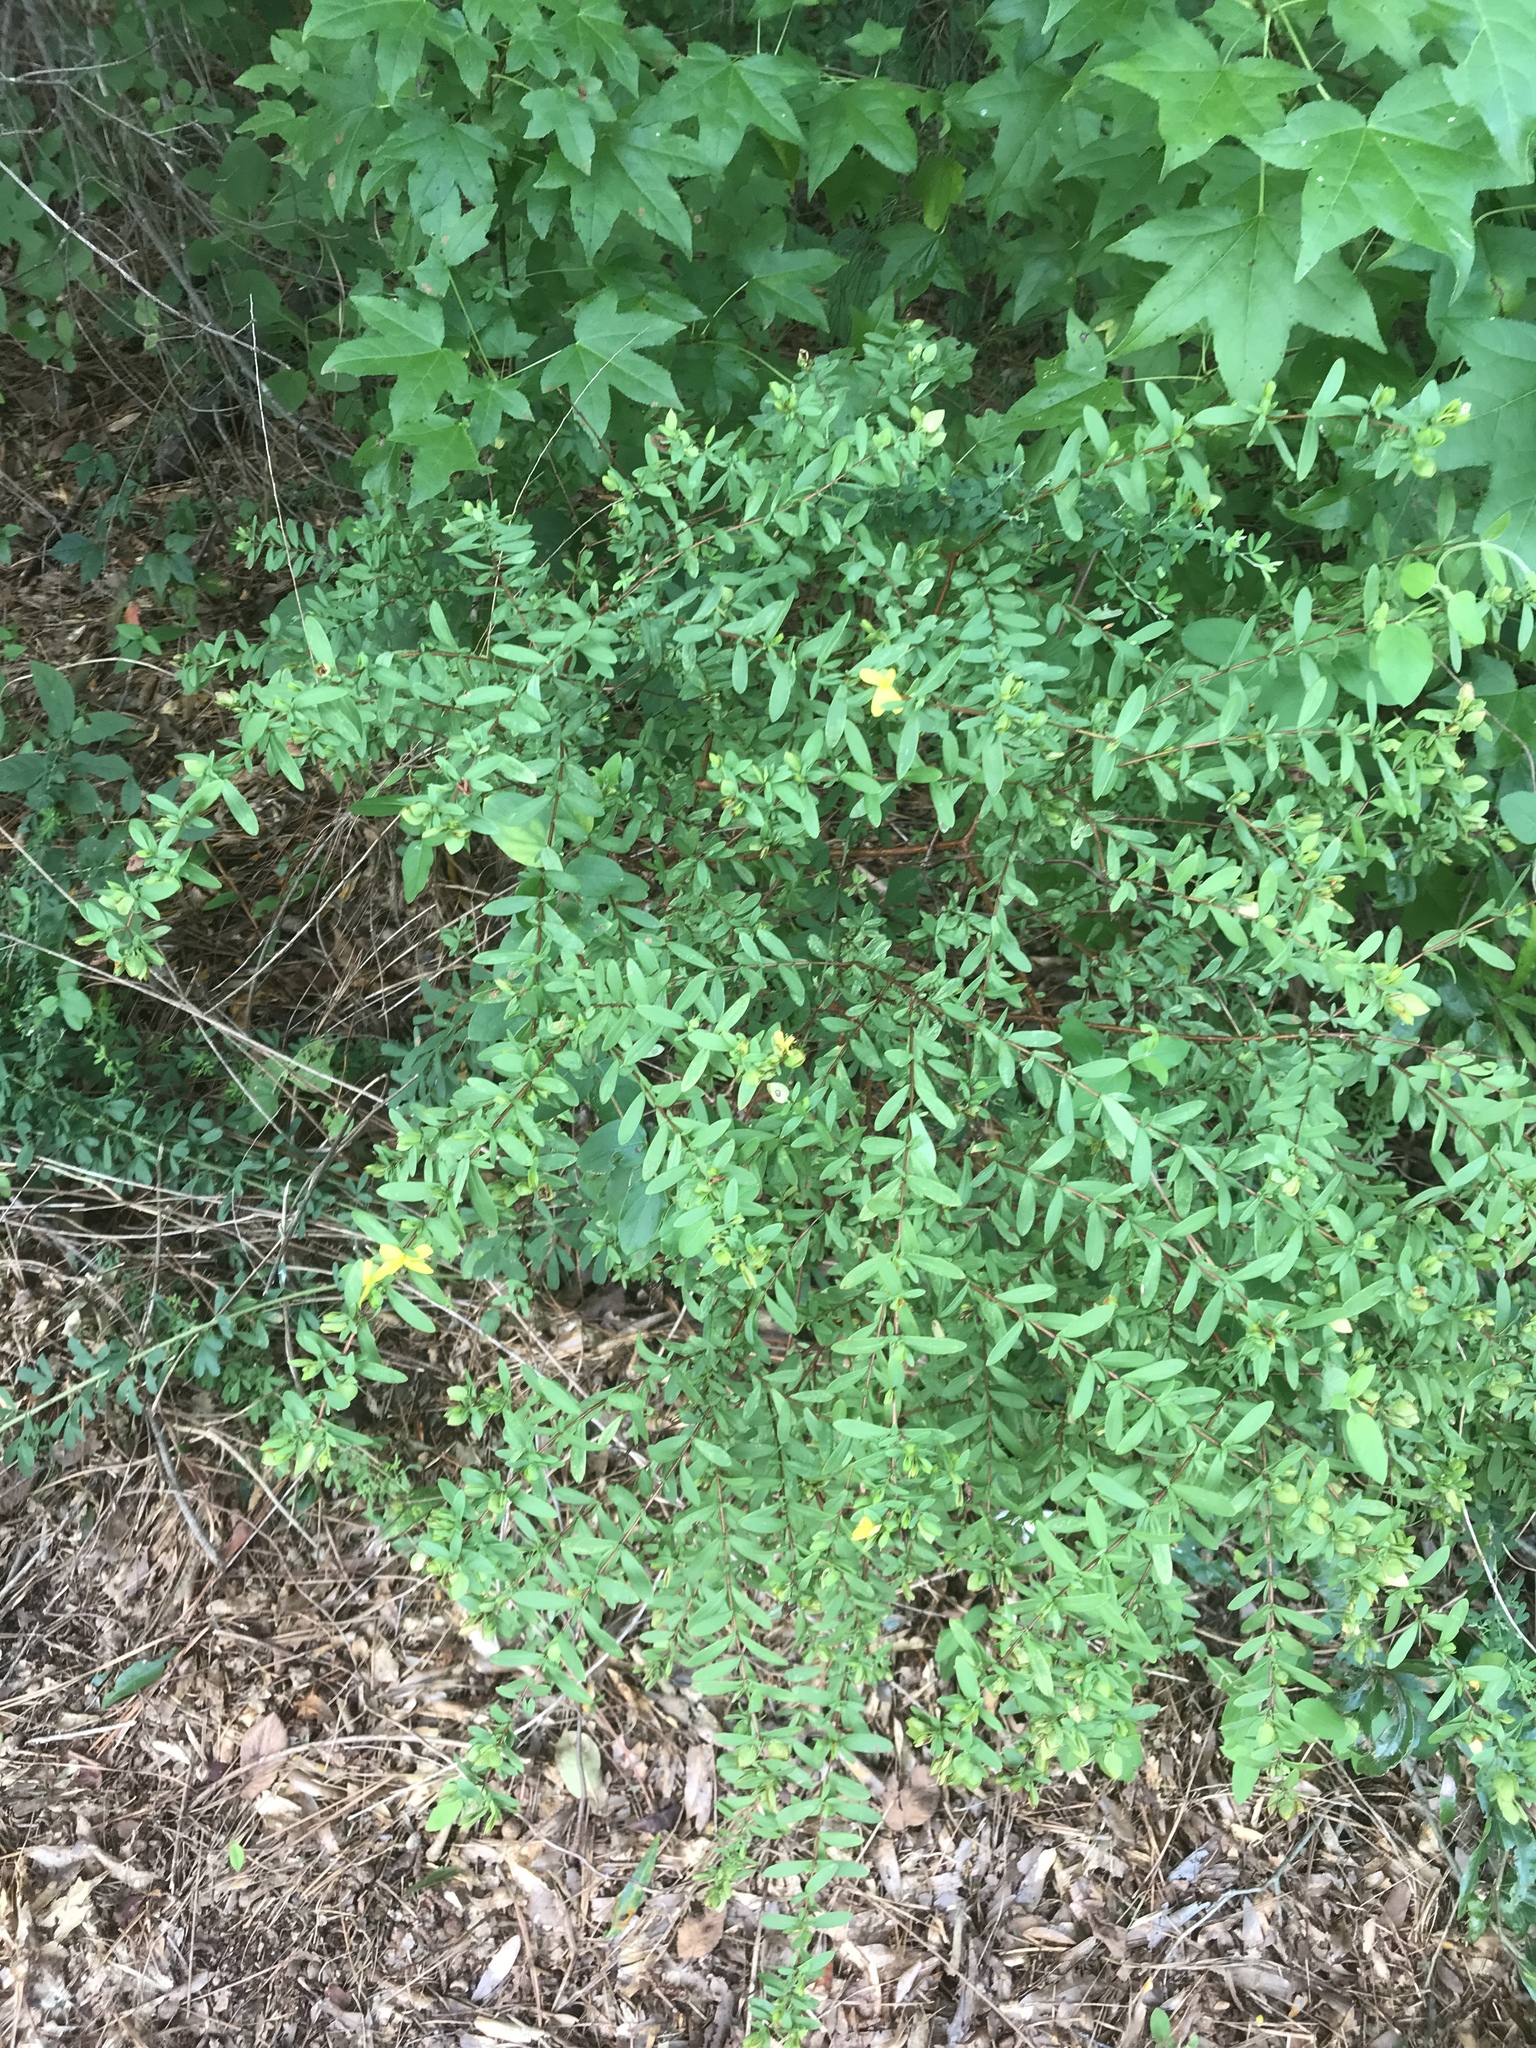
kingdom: Plantae
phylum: Tracheophyta
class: Magnoliopsida
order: Malpighiales
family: Hypericaceae
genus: Hypericum
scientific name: Hypericum hypericoides
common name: St. andrew's cross
